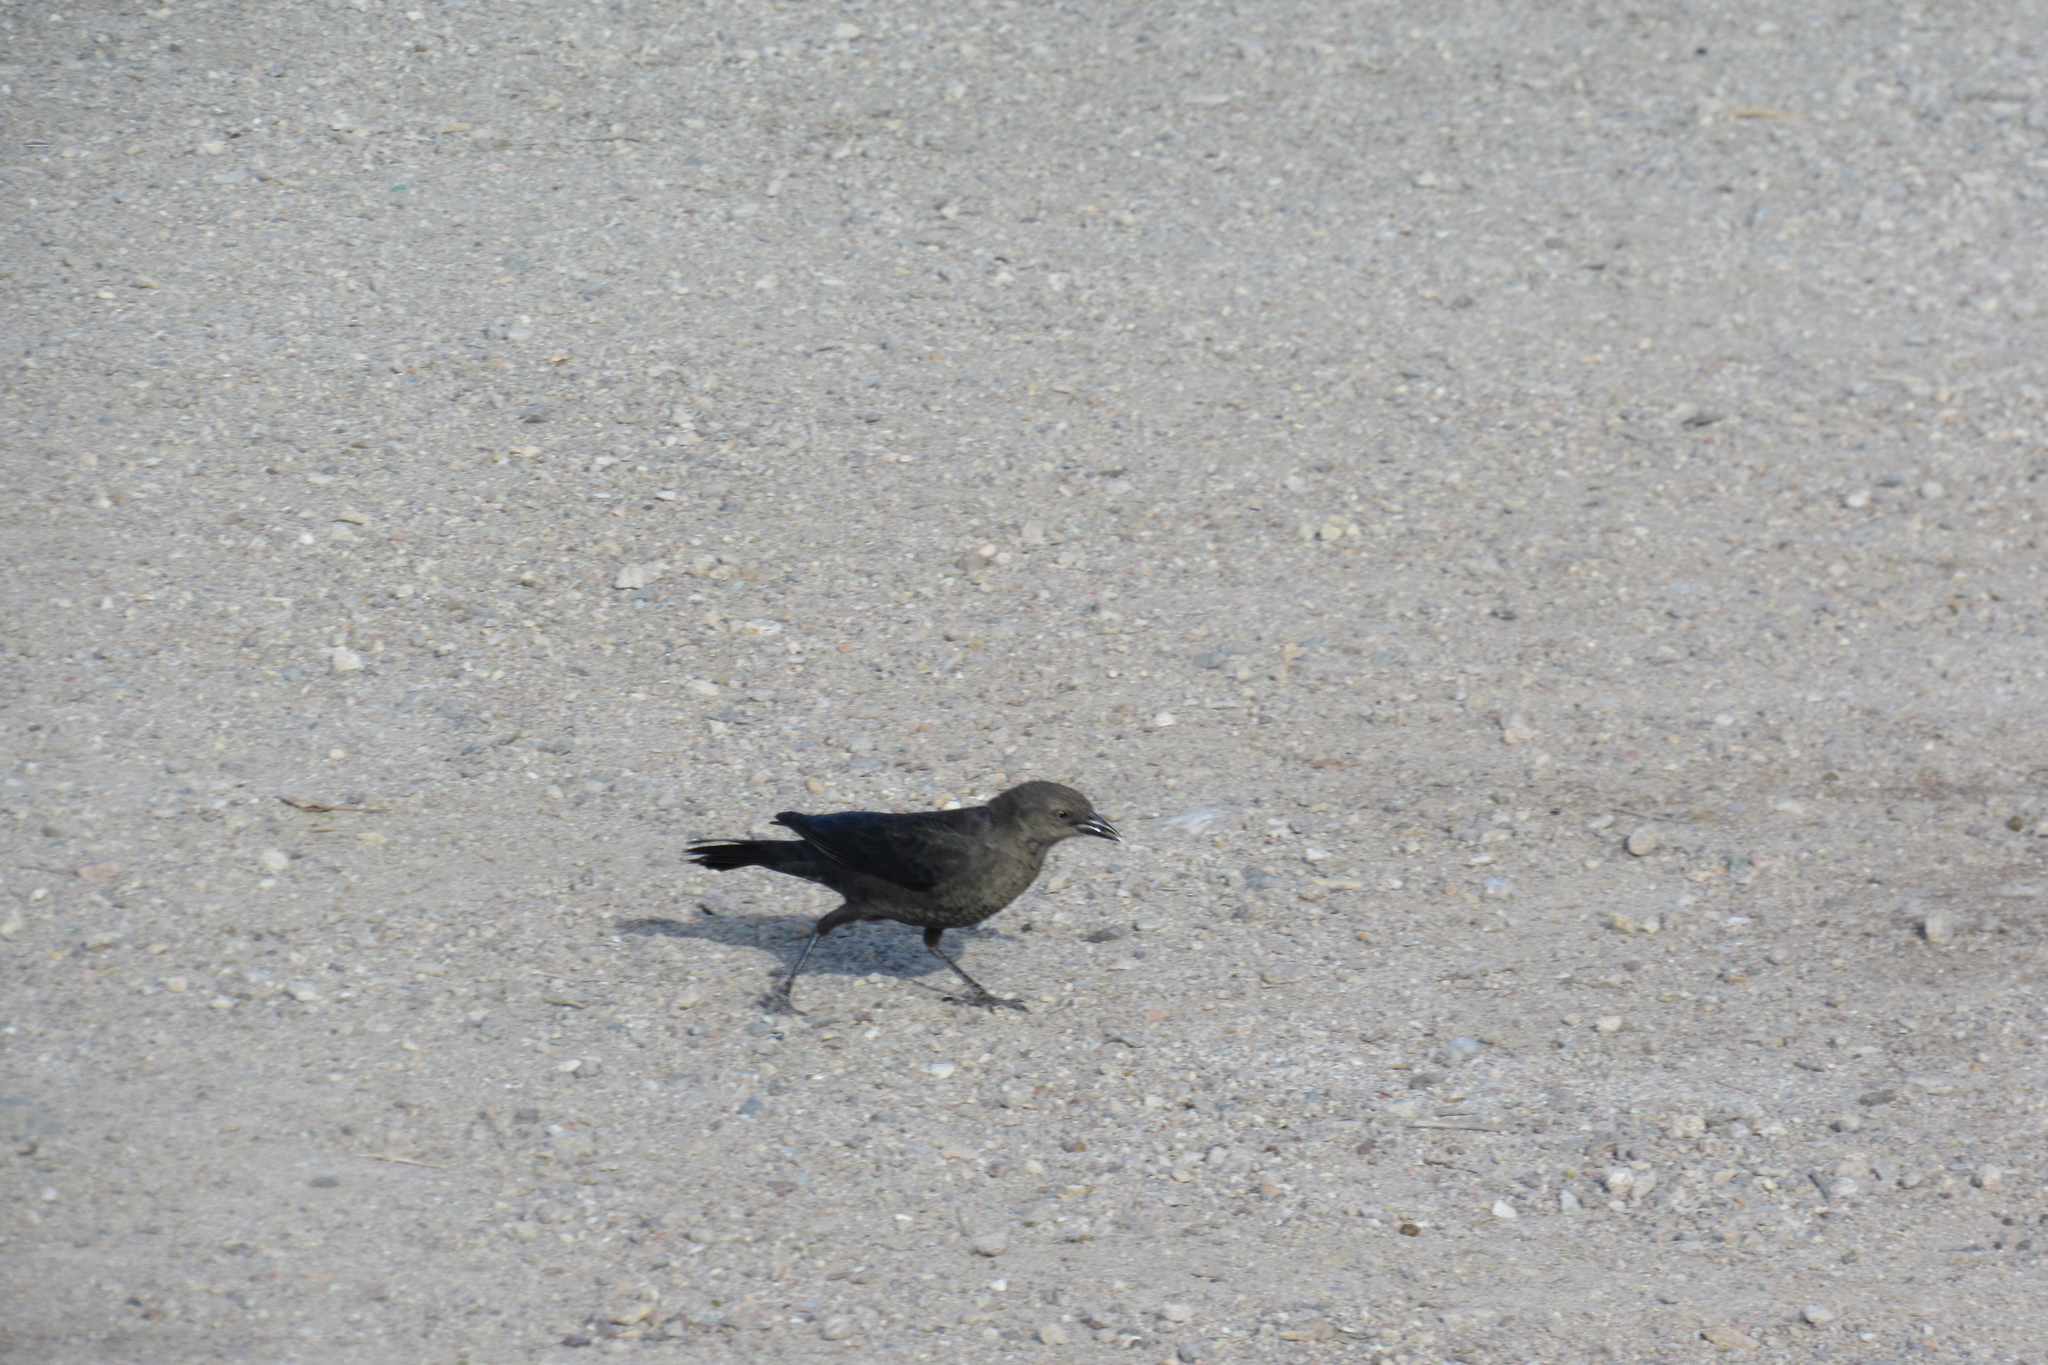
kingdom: Animalia
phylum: Chordata
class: Aves
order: Passeriformes
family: Icteridae
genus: Euphagus
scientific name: Euphagus cyanocephalus
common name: Brewer's blackbird
